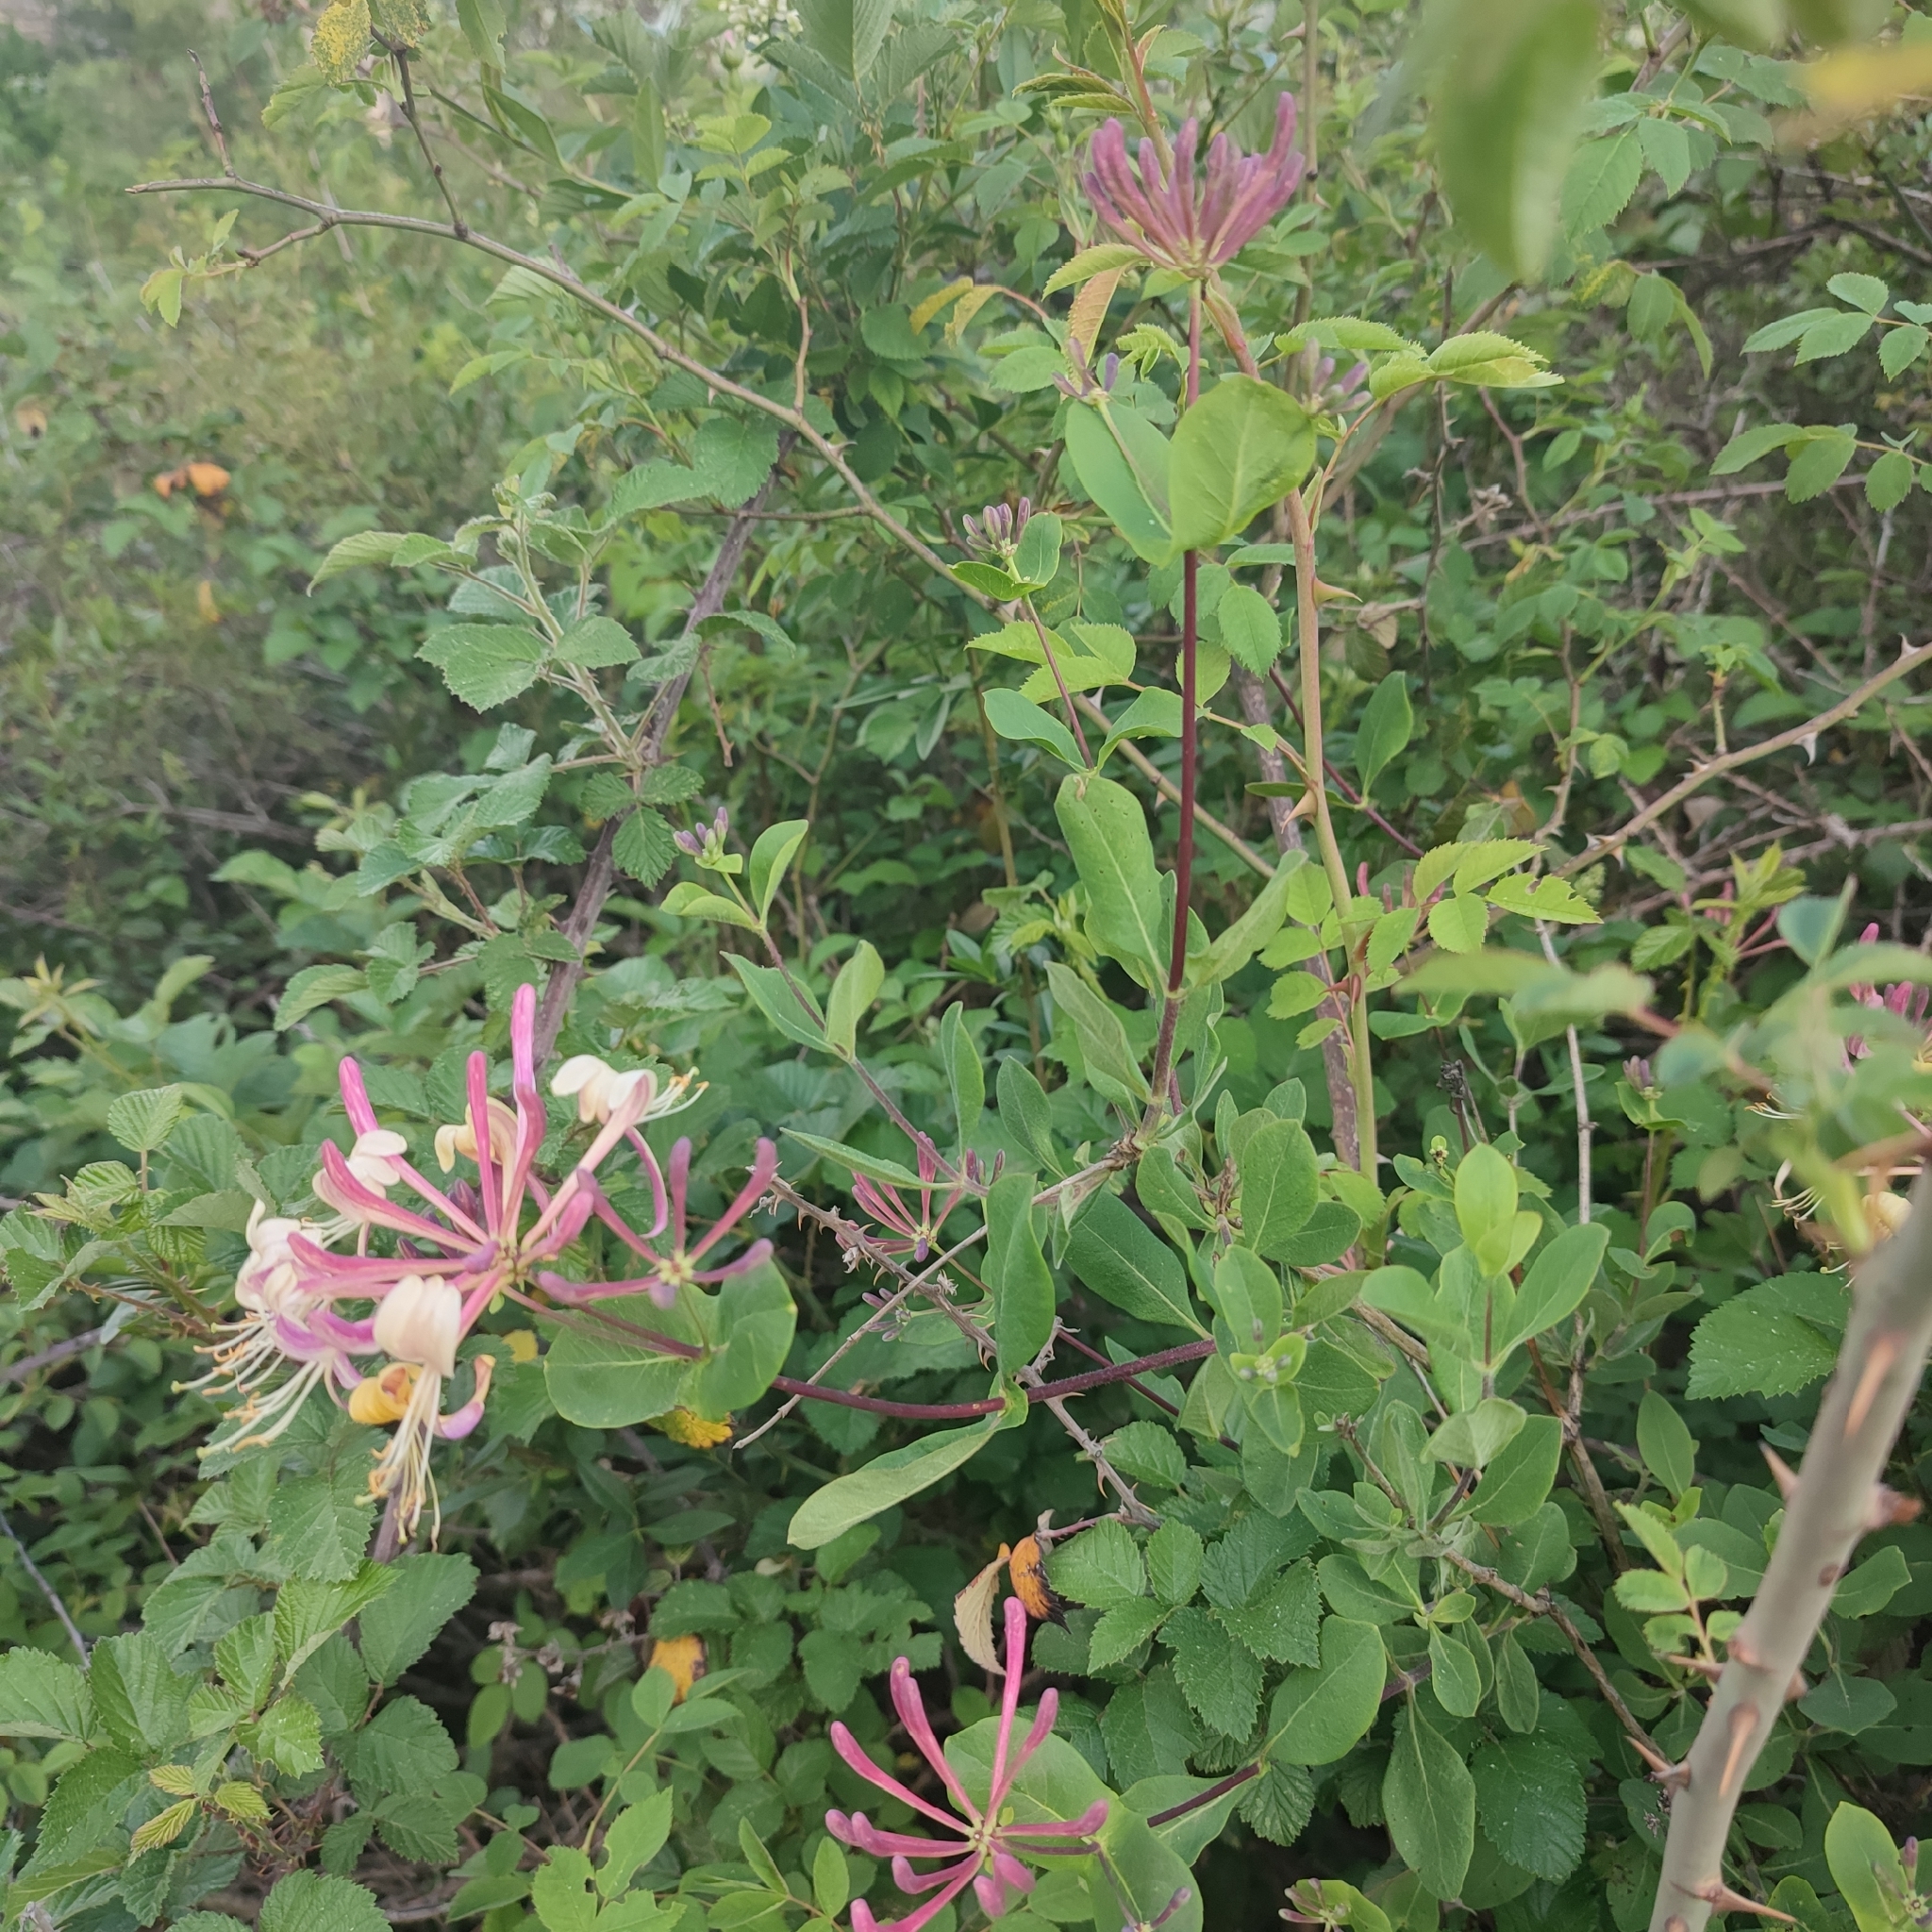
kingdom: Plantae
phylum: Tracheophyta
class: Magnoliopsida
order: Dipsacales
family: Caprifoliaceae
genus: Lonicera
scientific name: Lonicera etrusca
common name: Etruscan honeysuckle
